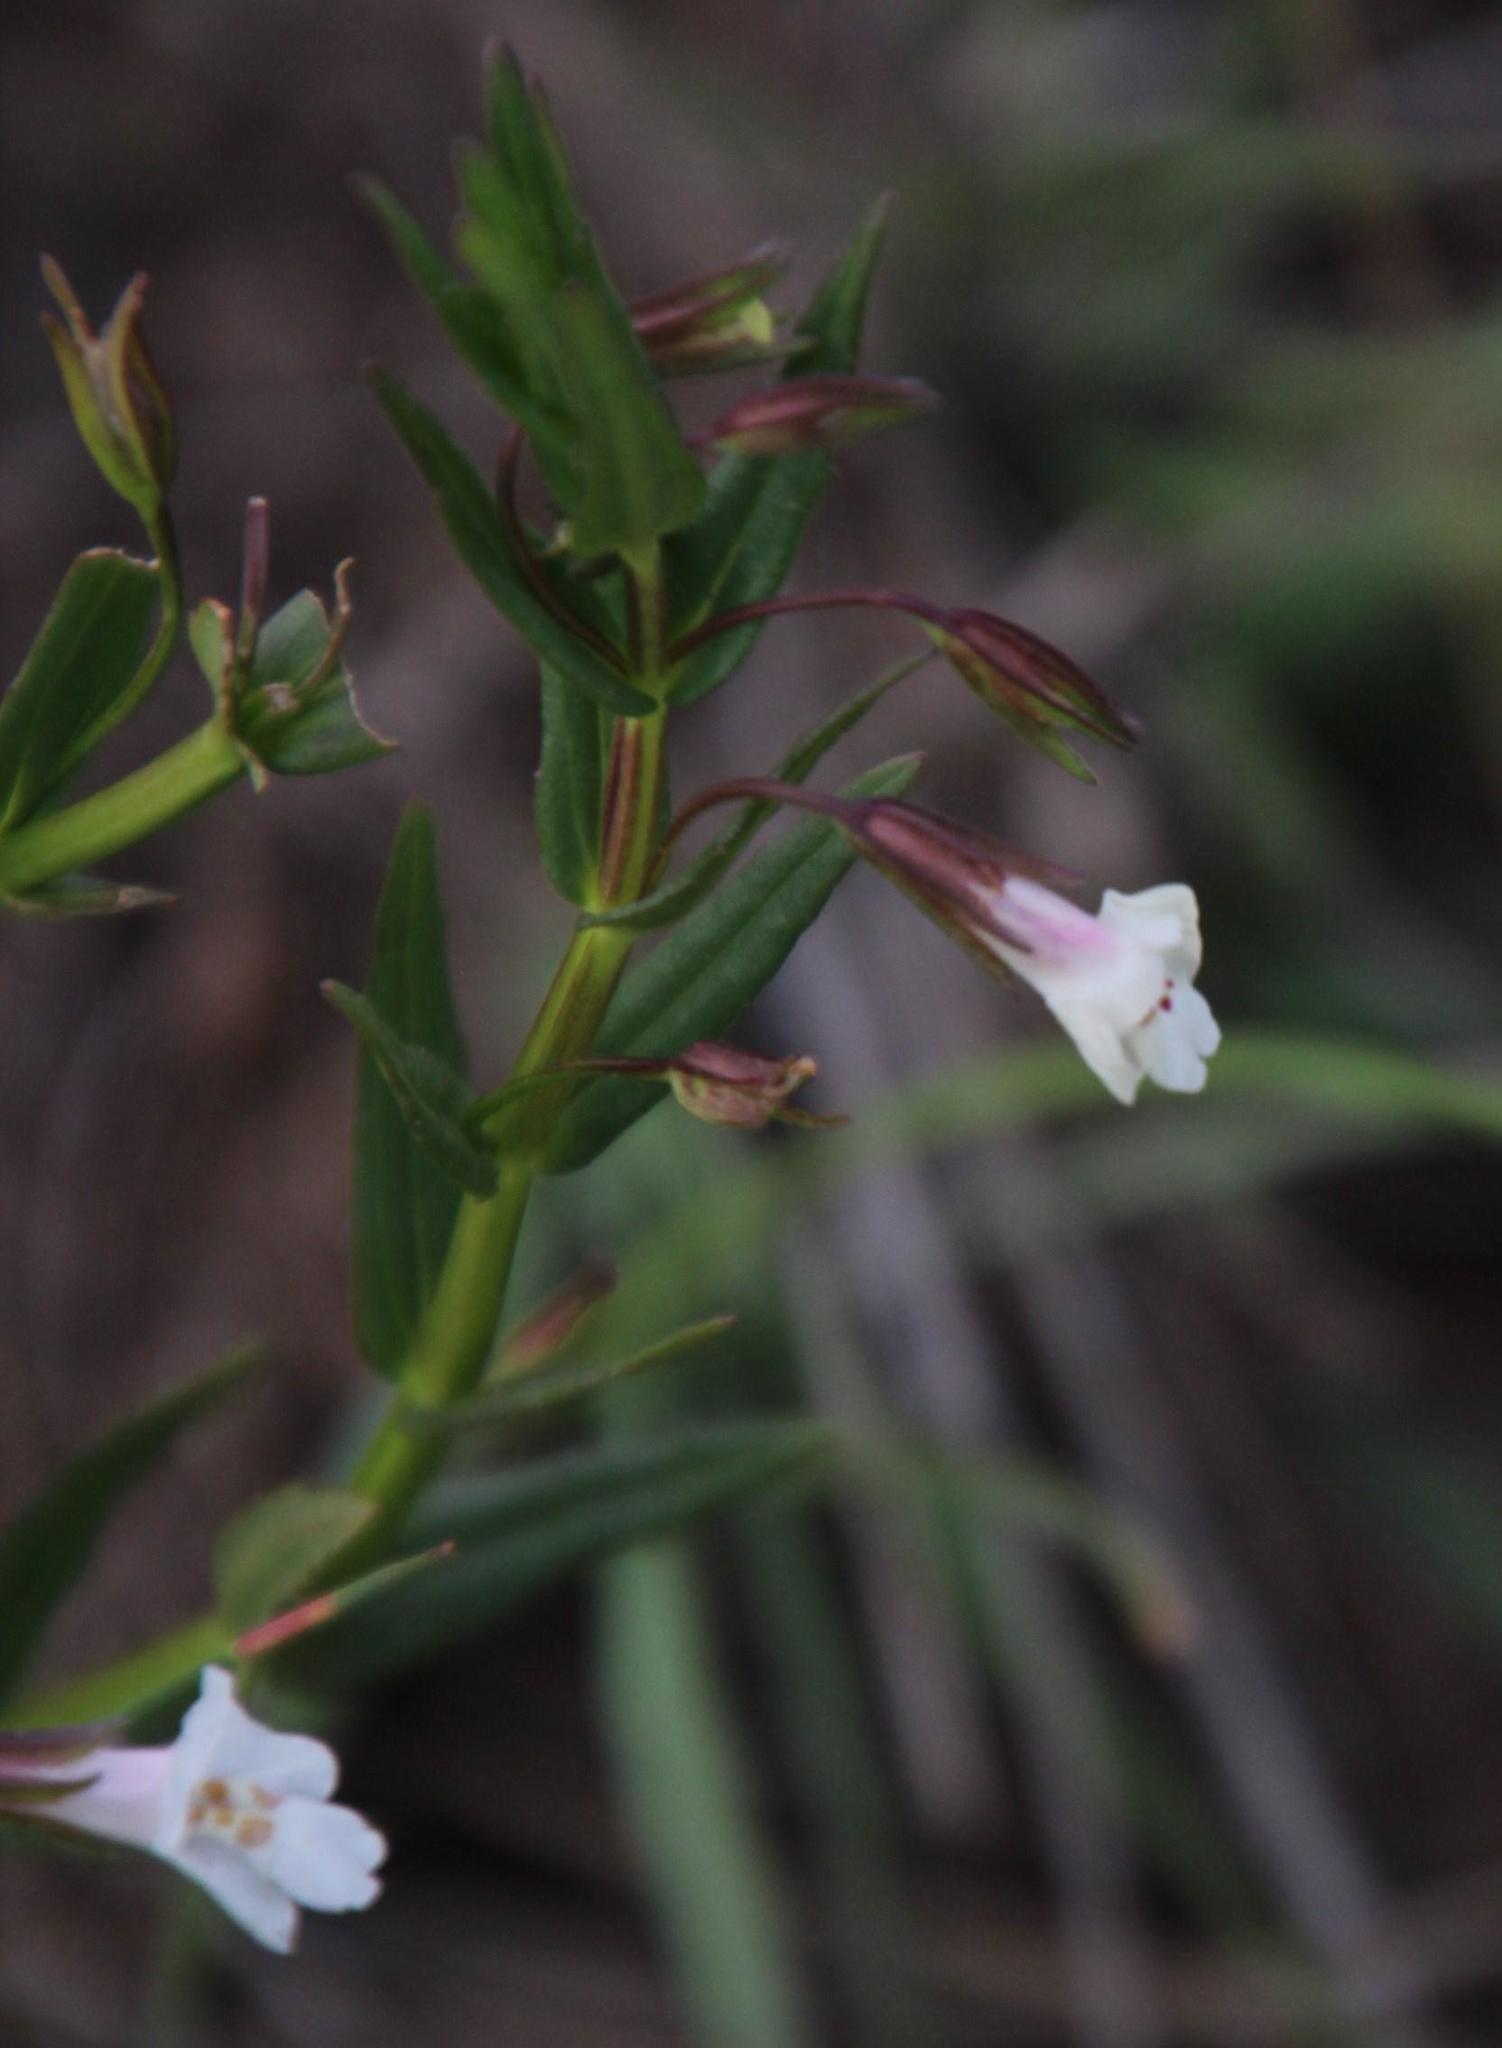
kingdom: Plantae
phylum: Tracheophyta
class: Magnoliopsida
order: Lamiales
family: Phrymaceae
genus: Mimulus
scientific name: Mimulus strictus
